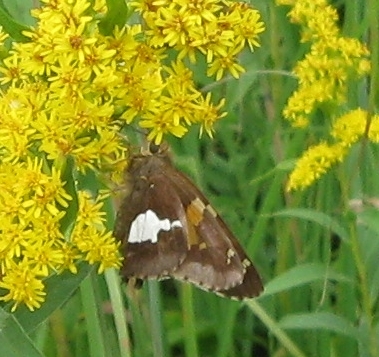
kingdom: Animalia
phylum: Arthropoda
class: Insecta
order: Lepidoptera
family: Hesperiidae
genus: Epargyreus
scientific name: Epargyreus clarus
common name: Silver-spotted skipper
